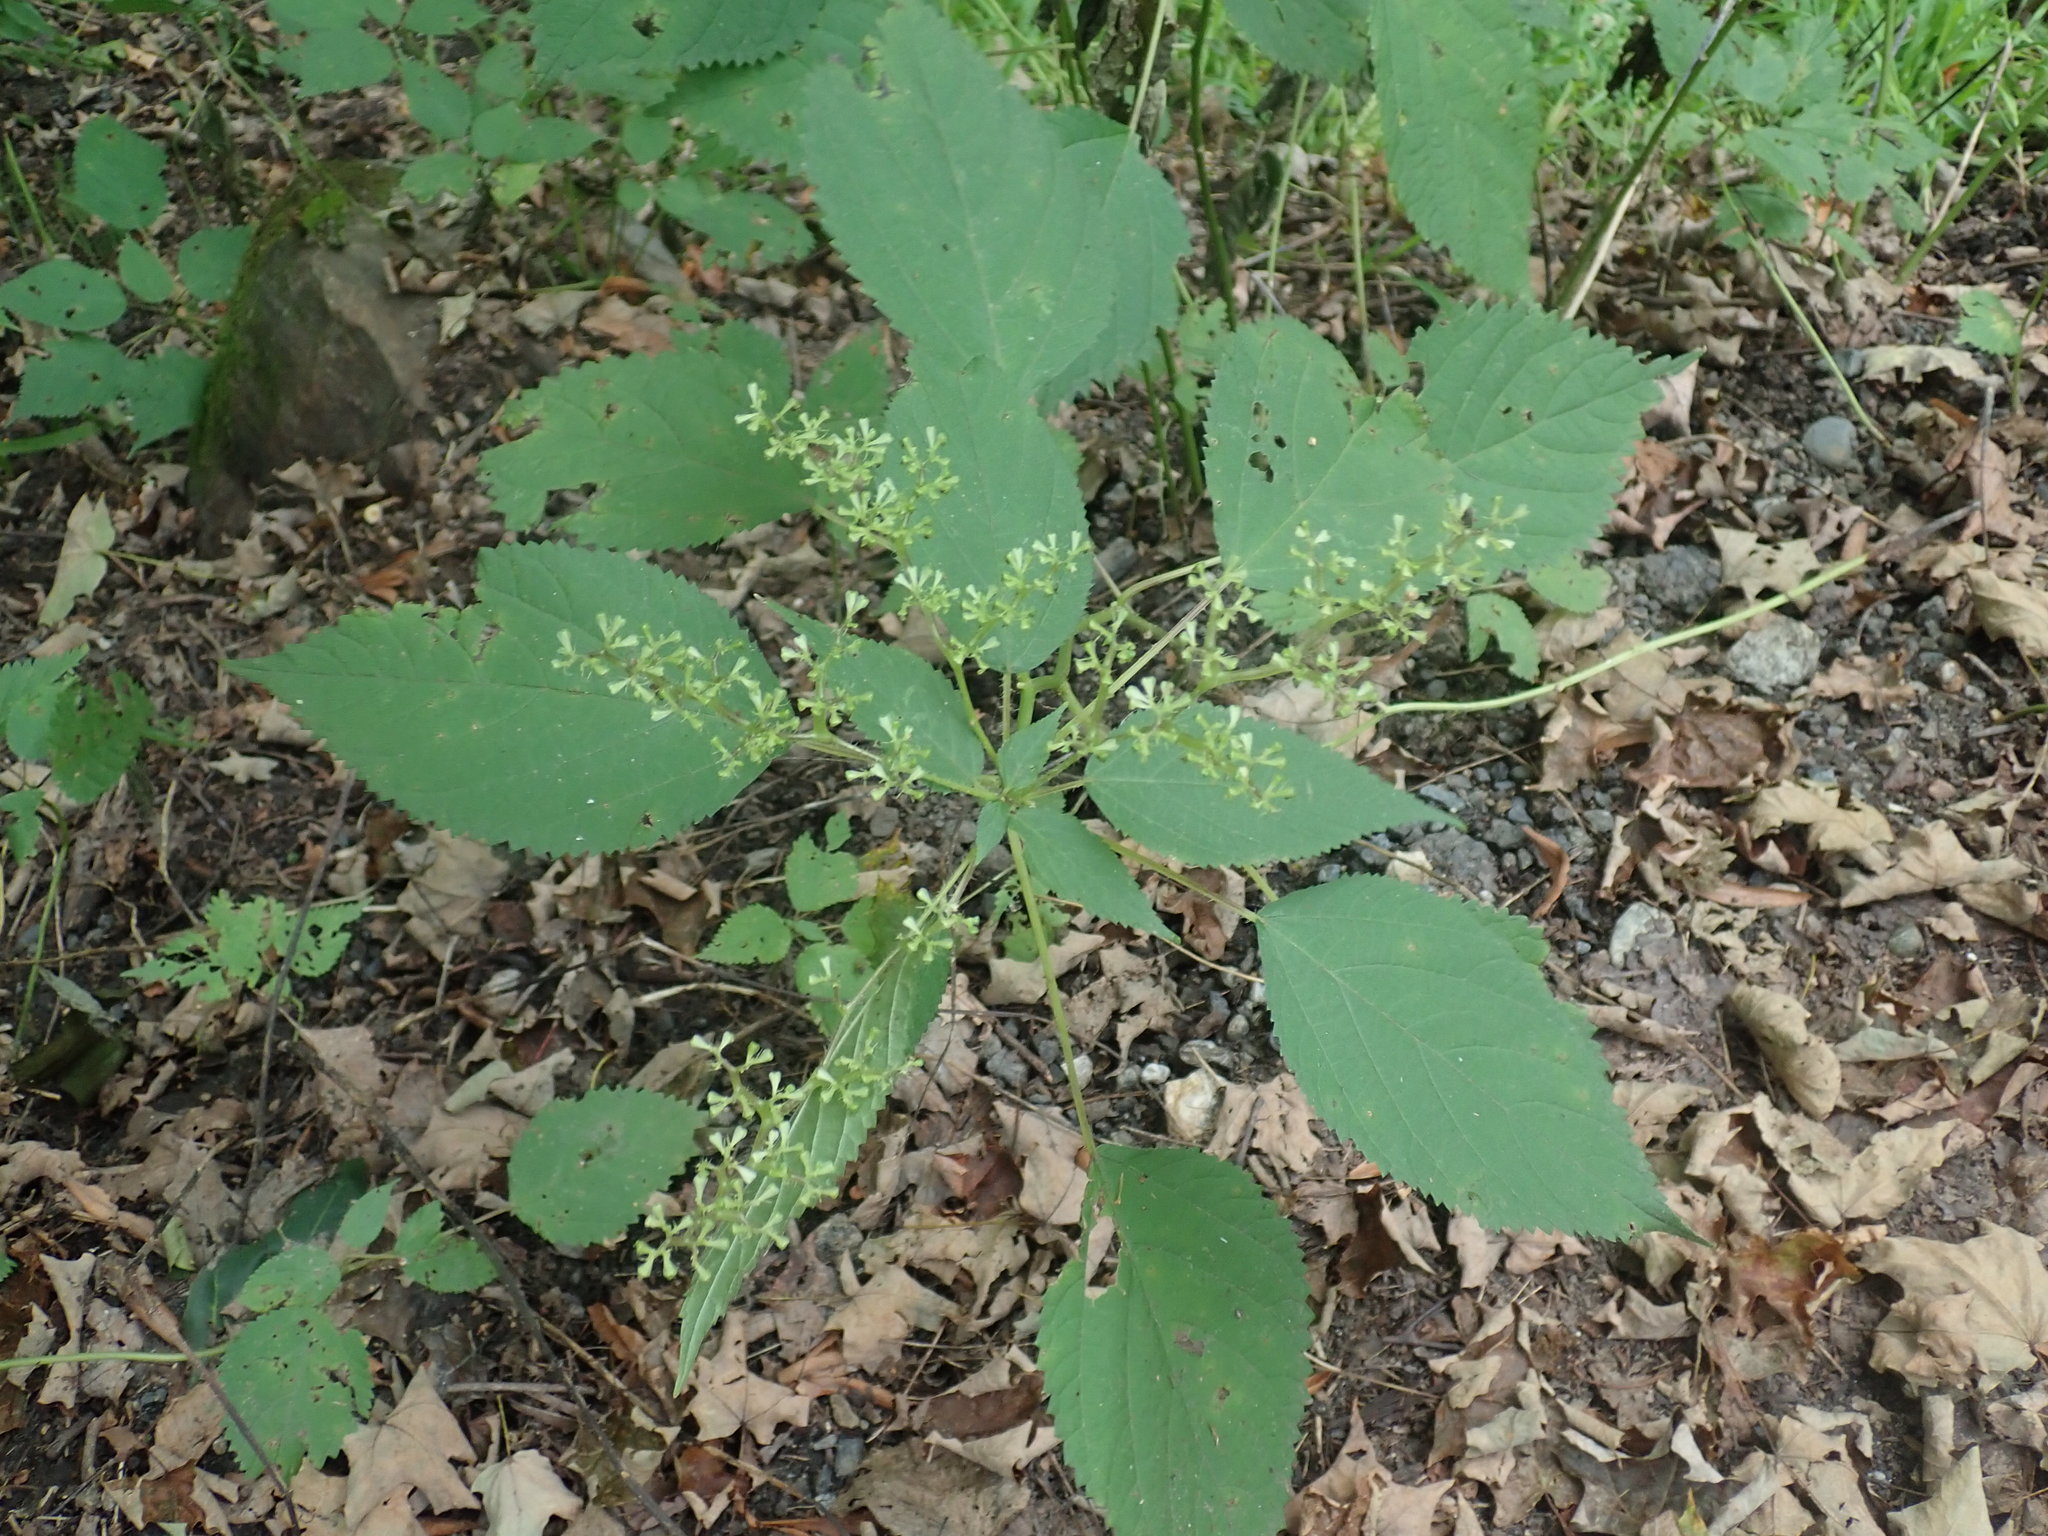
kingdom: Plantae
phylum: Tracheophyta
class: Magnoliopsida
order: Rosales
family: Urticaceae
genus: Laportea
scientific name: Laportea canadensis
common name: Canada nettle
